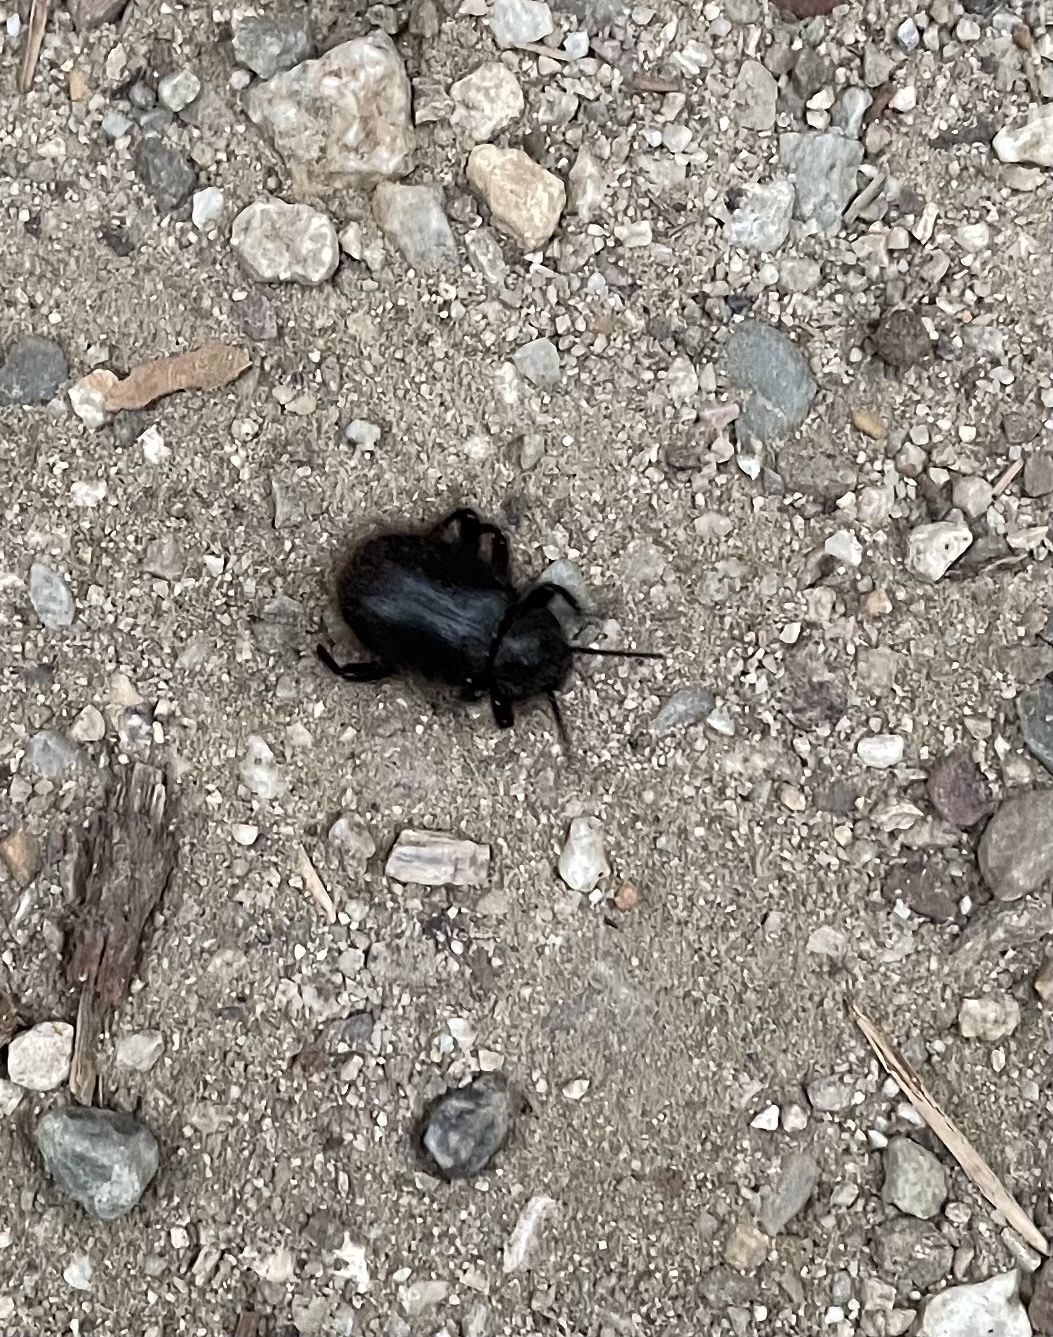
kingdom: Animalia
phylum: Arthropoda
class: Insecta
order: Coleoptera
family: Tenebrionidae
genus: Eleodes
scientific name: Eleodes osculans
